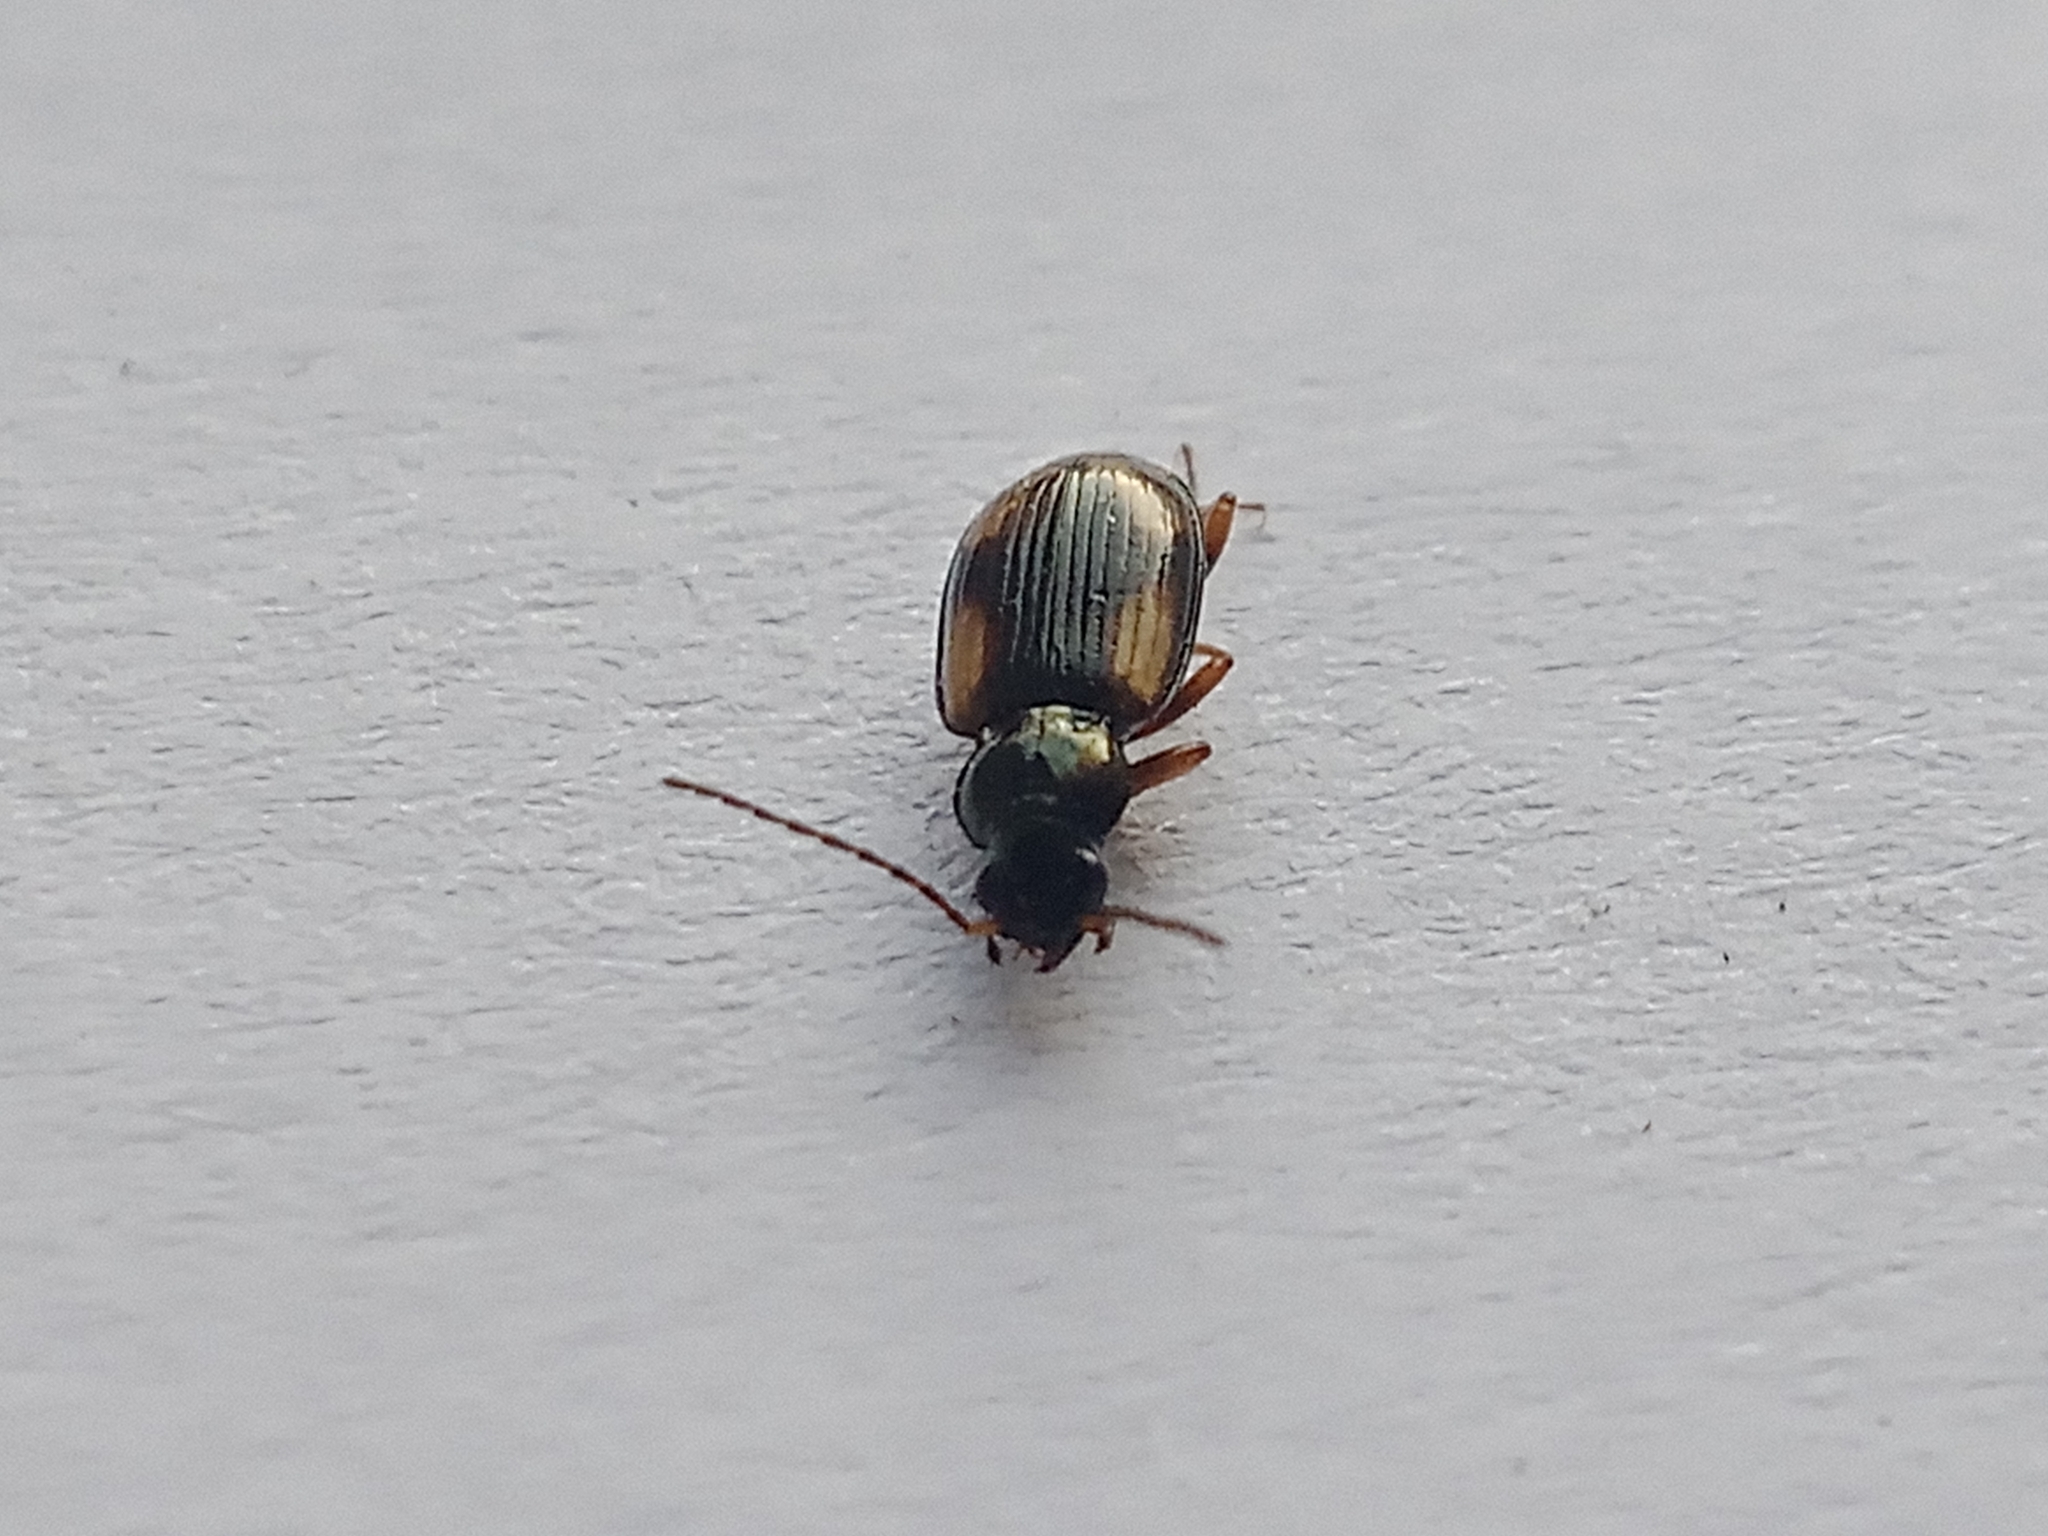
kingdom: Animalia
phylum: Arthropoda
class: Insecta
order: Coleoptera
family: Carabidae
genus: Bembidion
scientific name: Bembidion tetracolum
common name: Seine riverbank ground beetle
